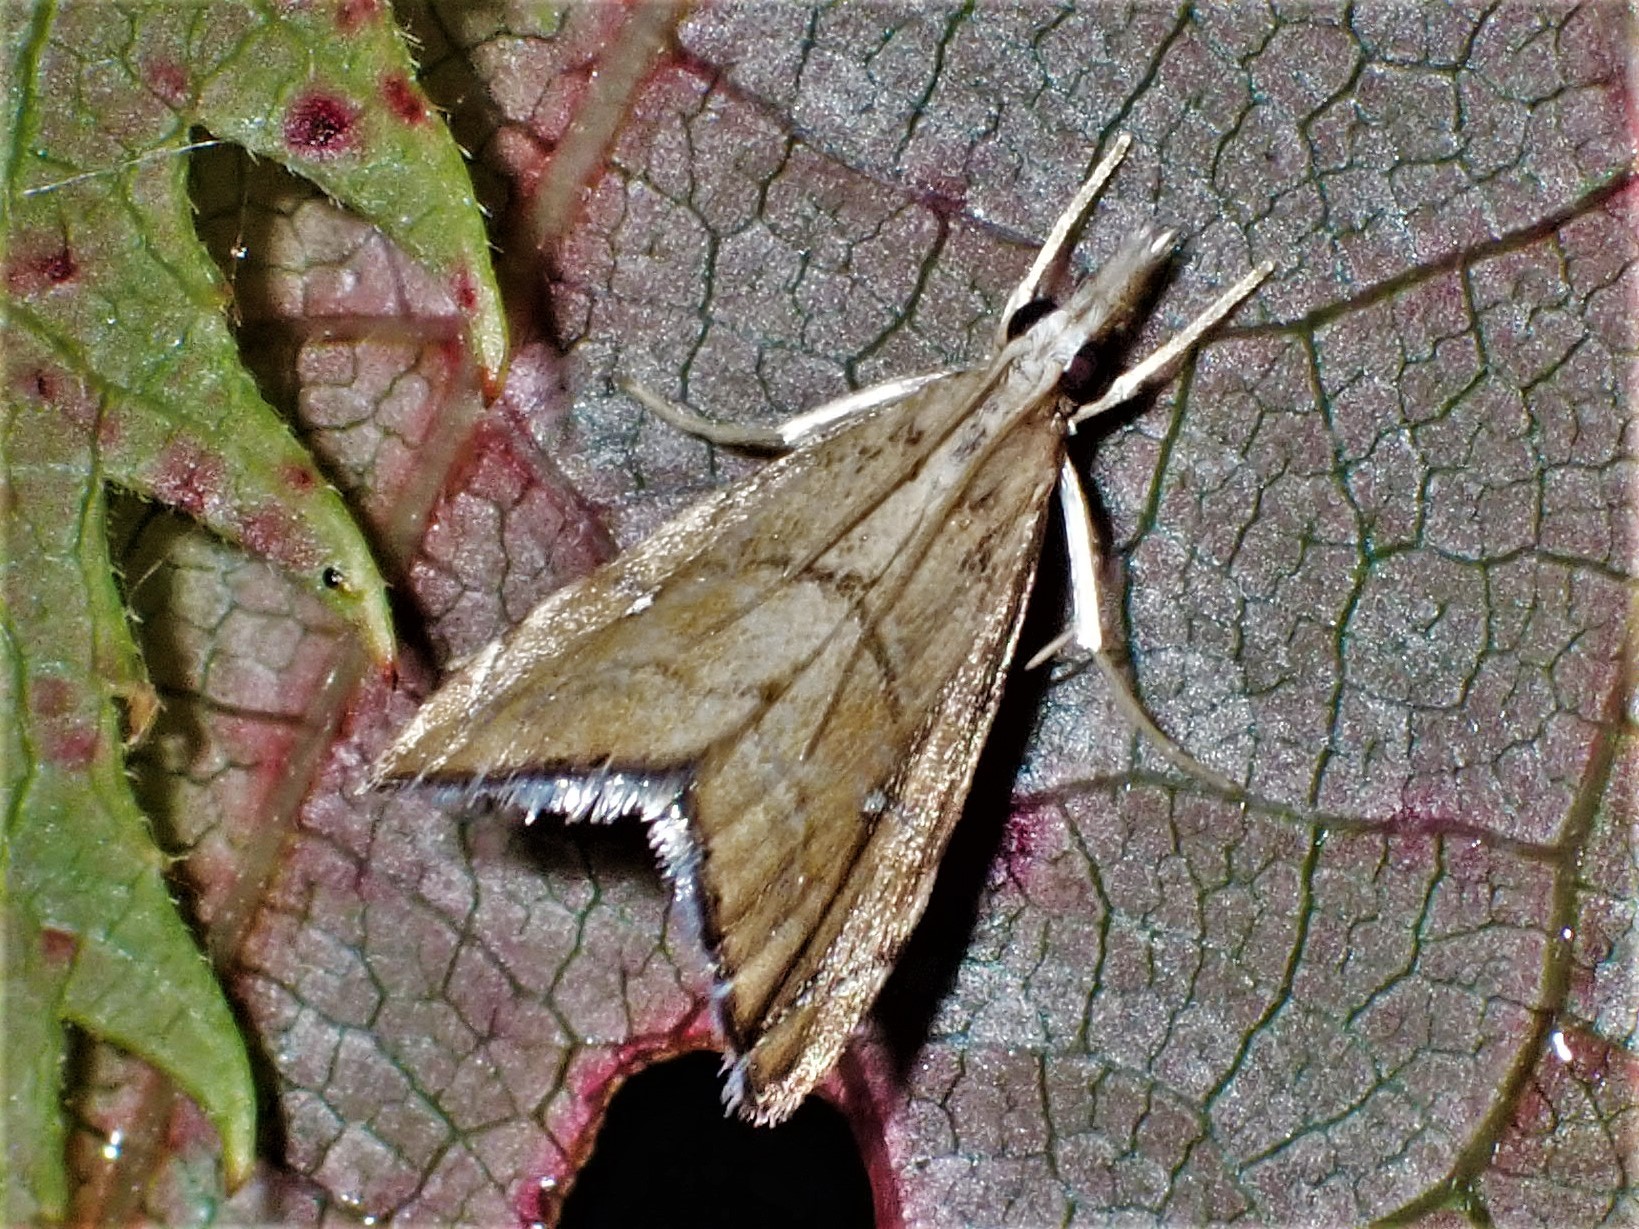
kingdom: Animalia
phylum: Arthropoda
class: Insecta
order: Lepidoptera
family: Crambidae
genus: Glaucocharis
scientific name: Glaucocharis bipunctella
